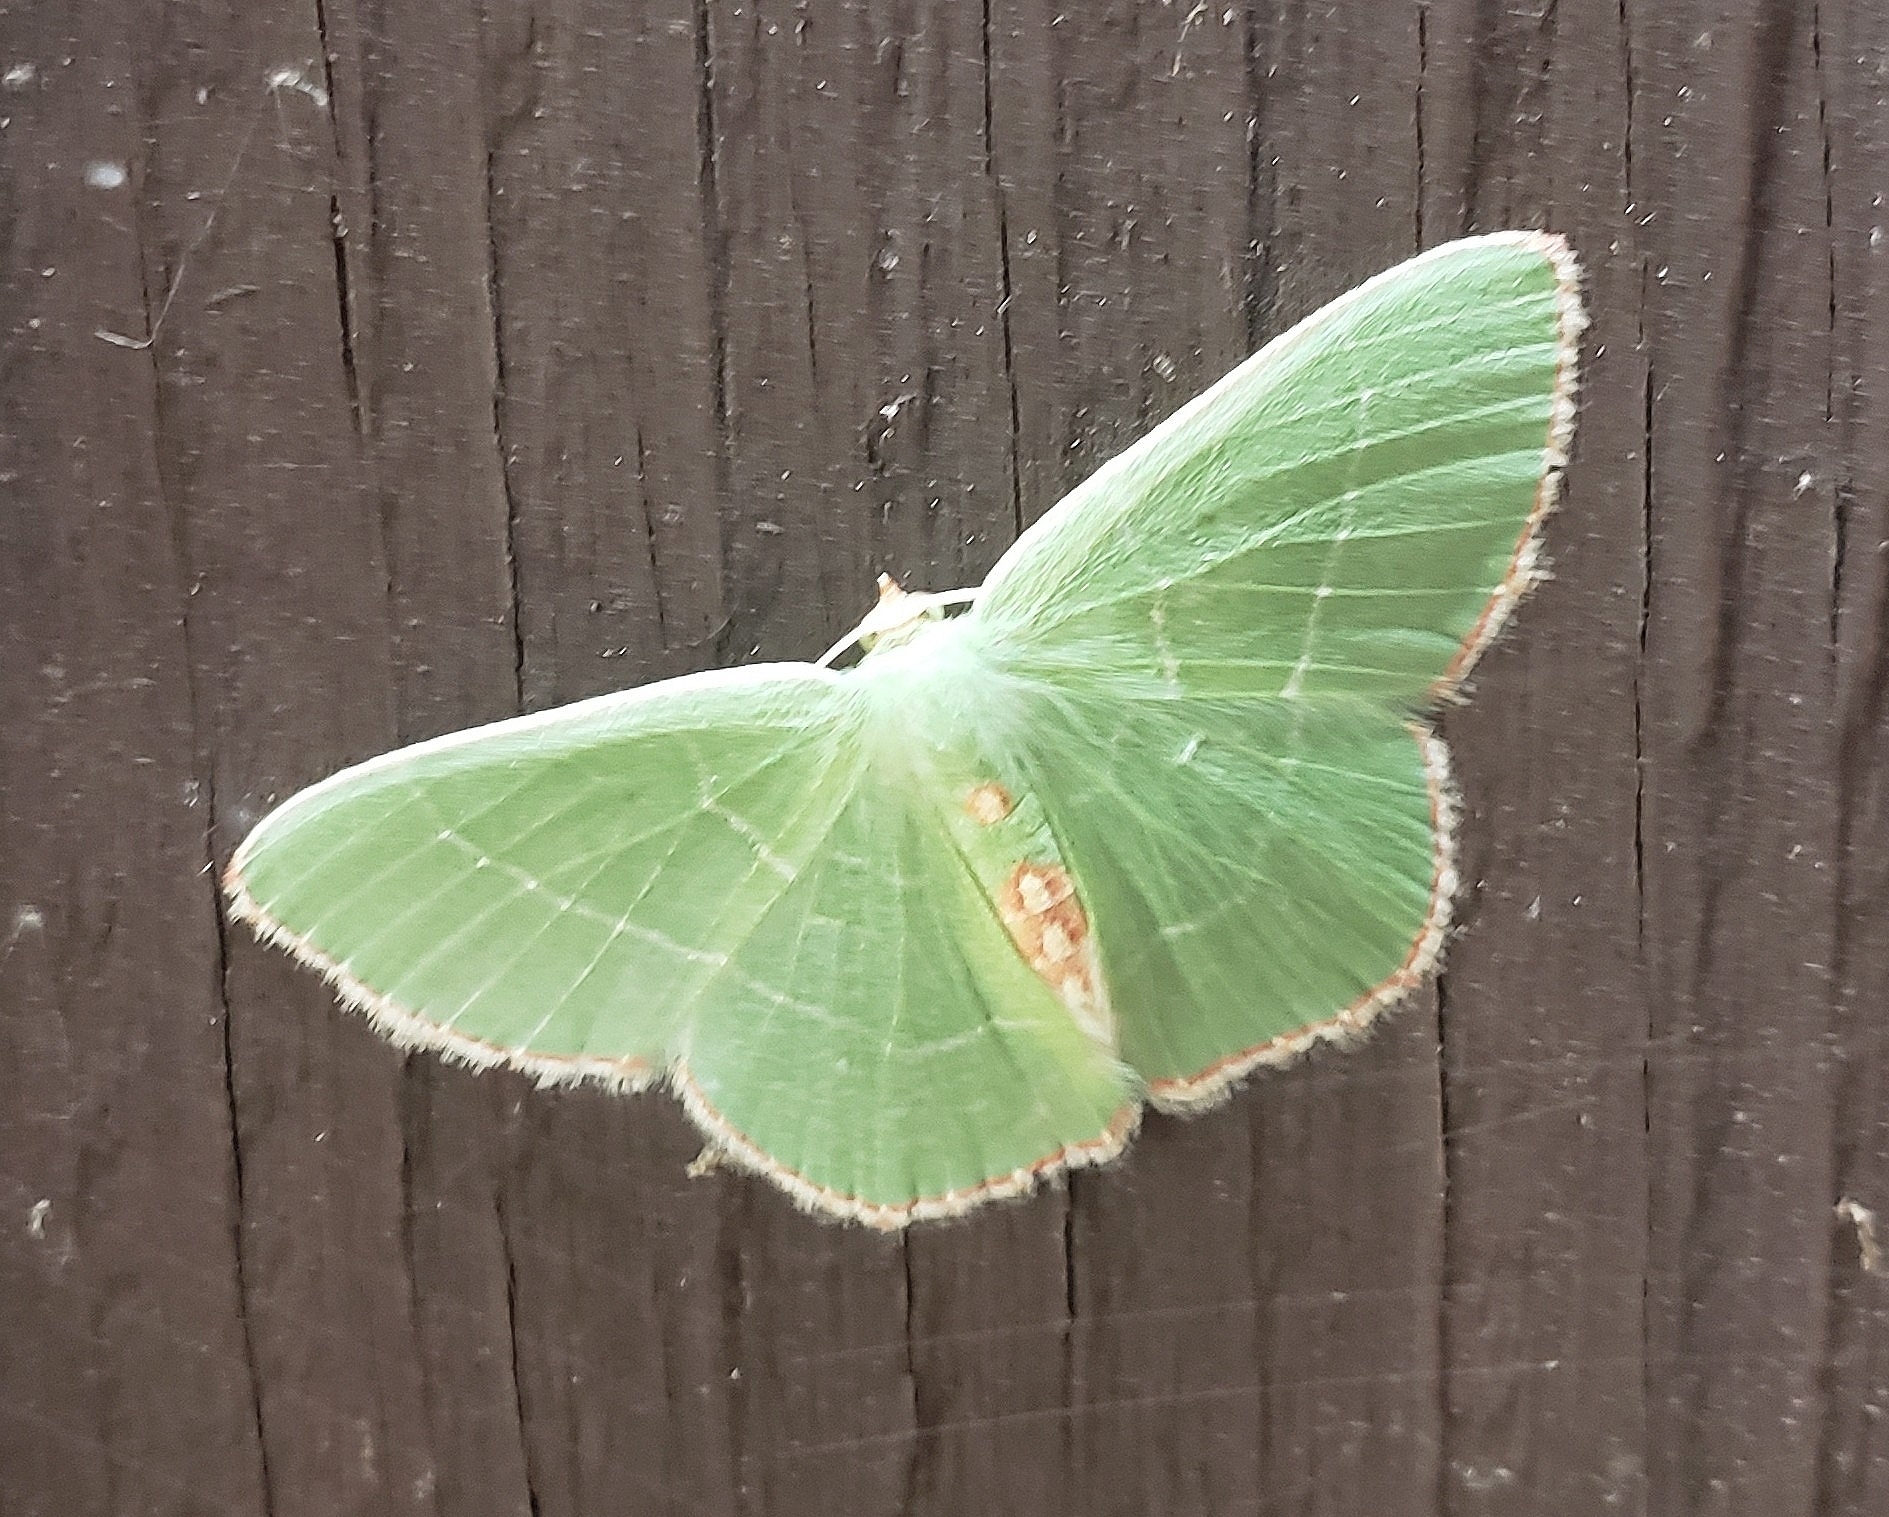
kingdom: Animalia
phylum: Arthropoda
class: Insecta
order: Lepidoptera
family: Geometridae
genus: Nemoria
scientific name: Nemoria bistriaria
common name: Red-fringed emerald
